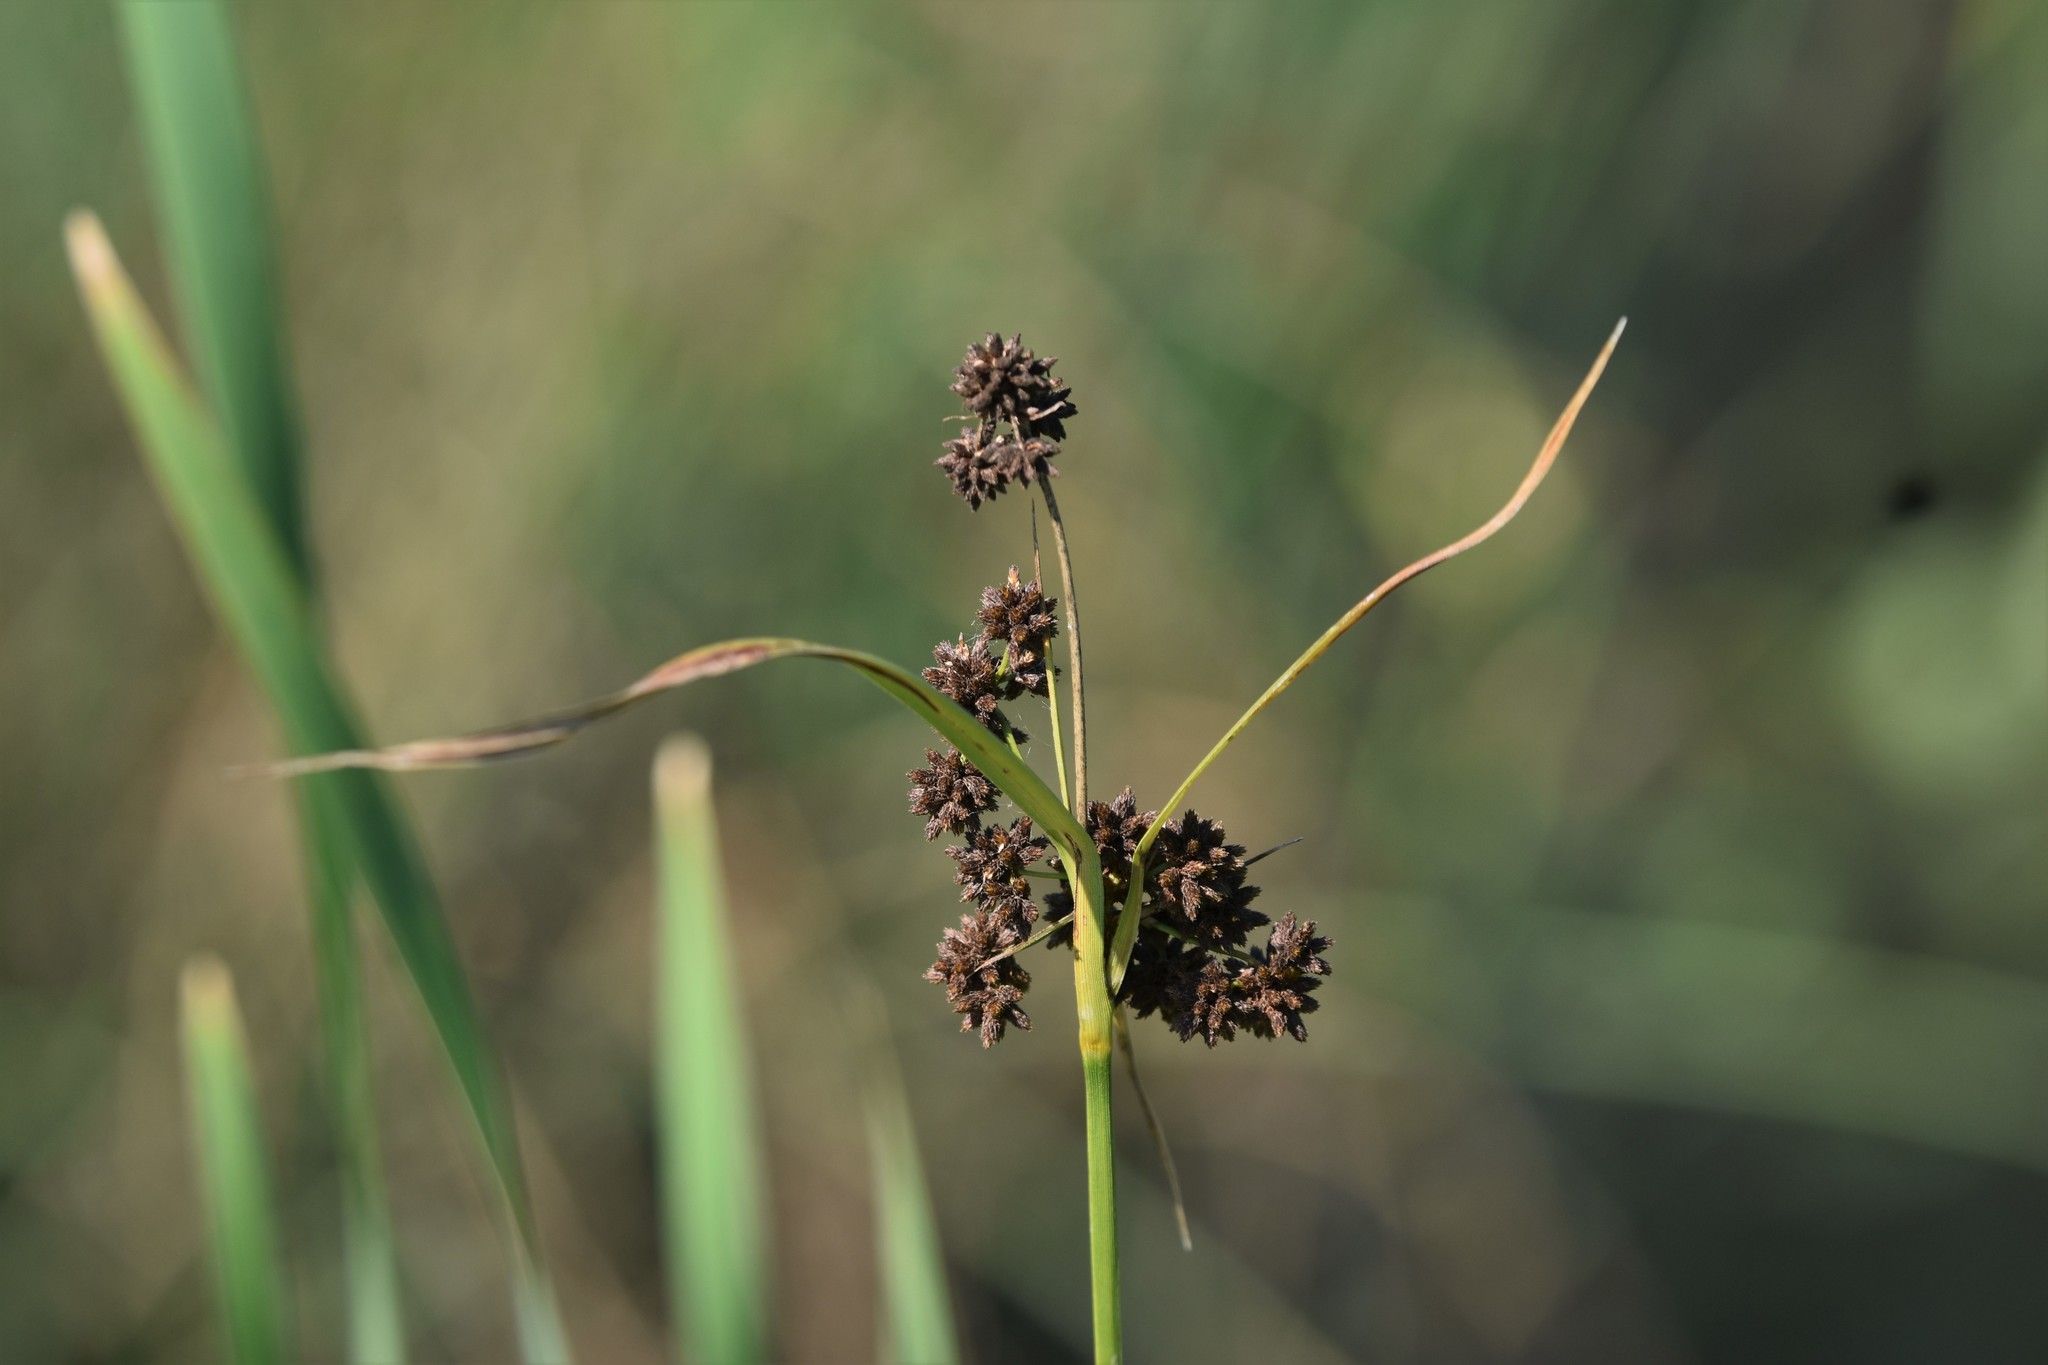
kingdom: Plantae
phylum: Tracheophyta
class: Liliopsida
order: Poales
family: Cyperaceae
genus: Scirpus
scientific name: Scirpus atrovirens
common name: Black bulrush
